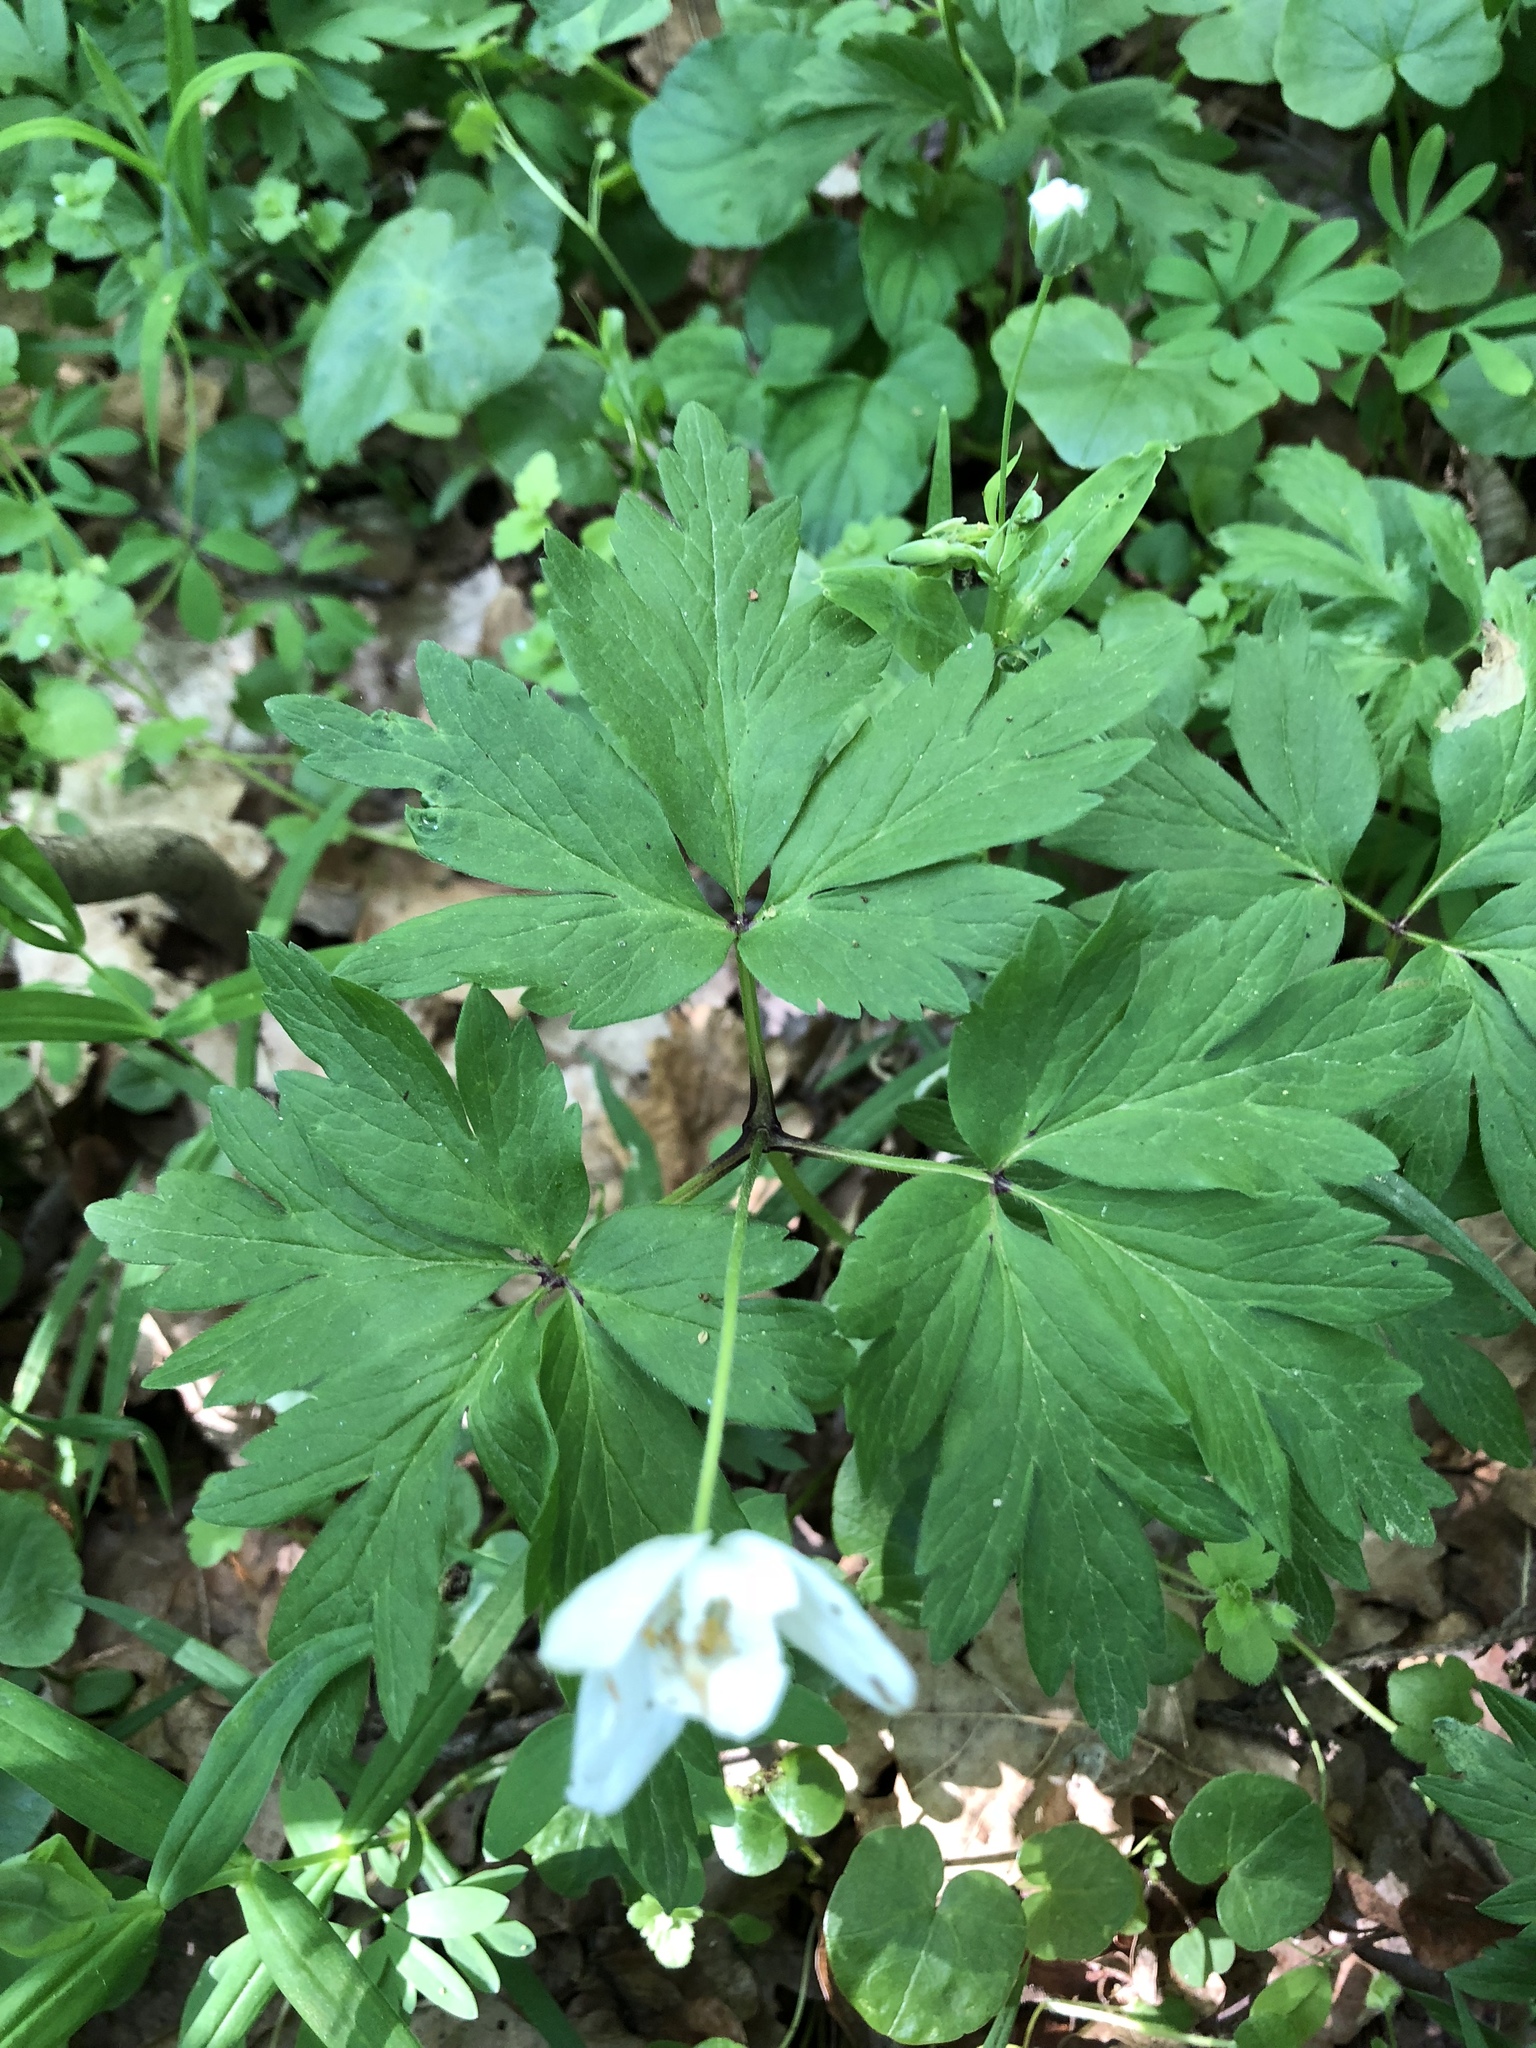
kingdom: Plantae
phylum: Tracheophyta
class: Magnoliopsida
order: Ranunculales
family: Ranunculaceae
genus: Anemone
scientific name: Anemone nemorosa
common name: Wood anemone
